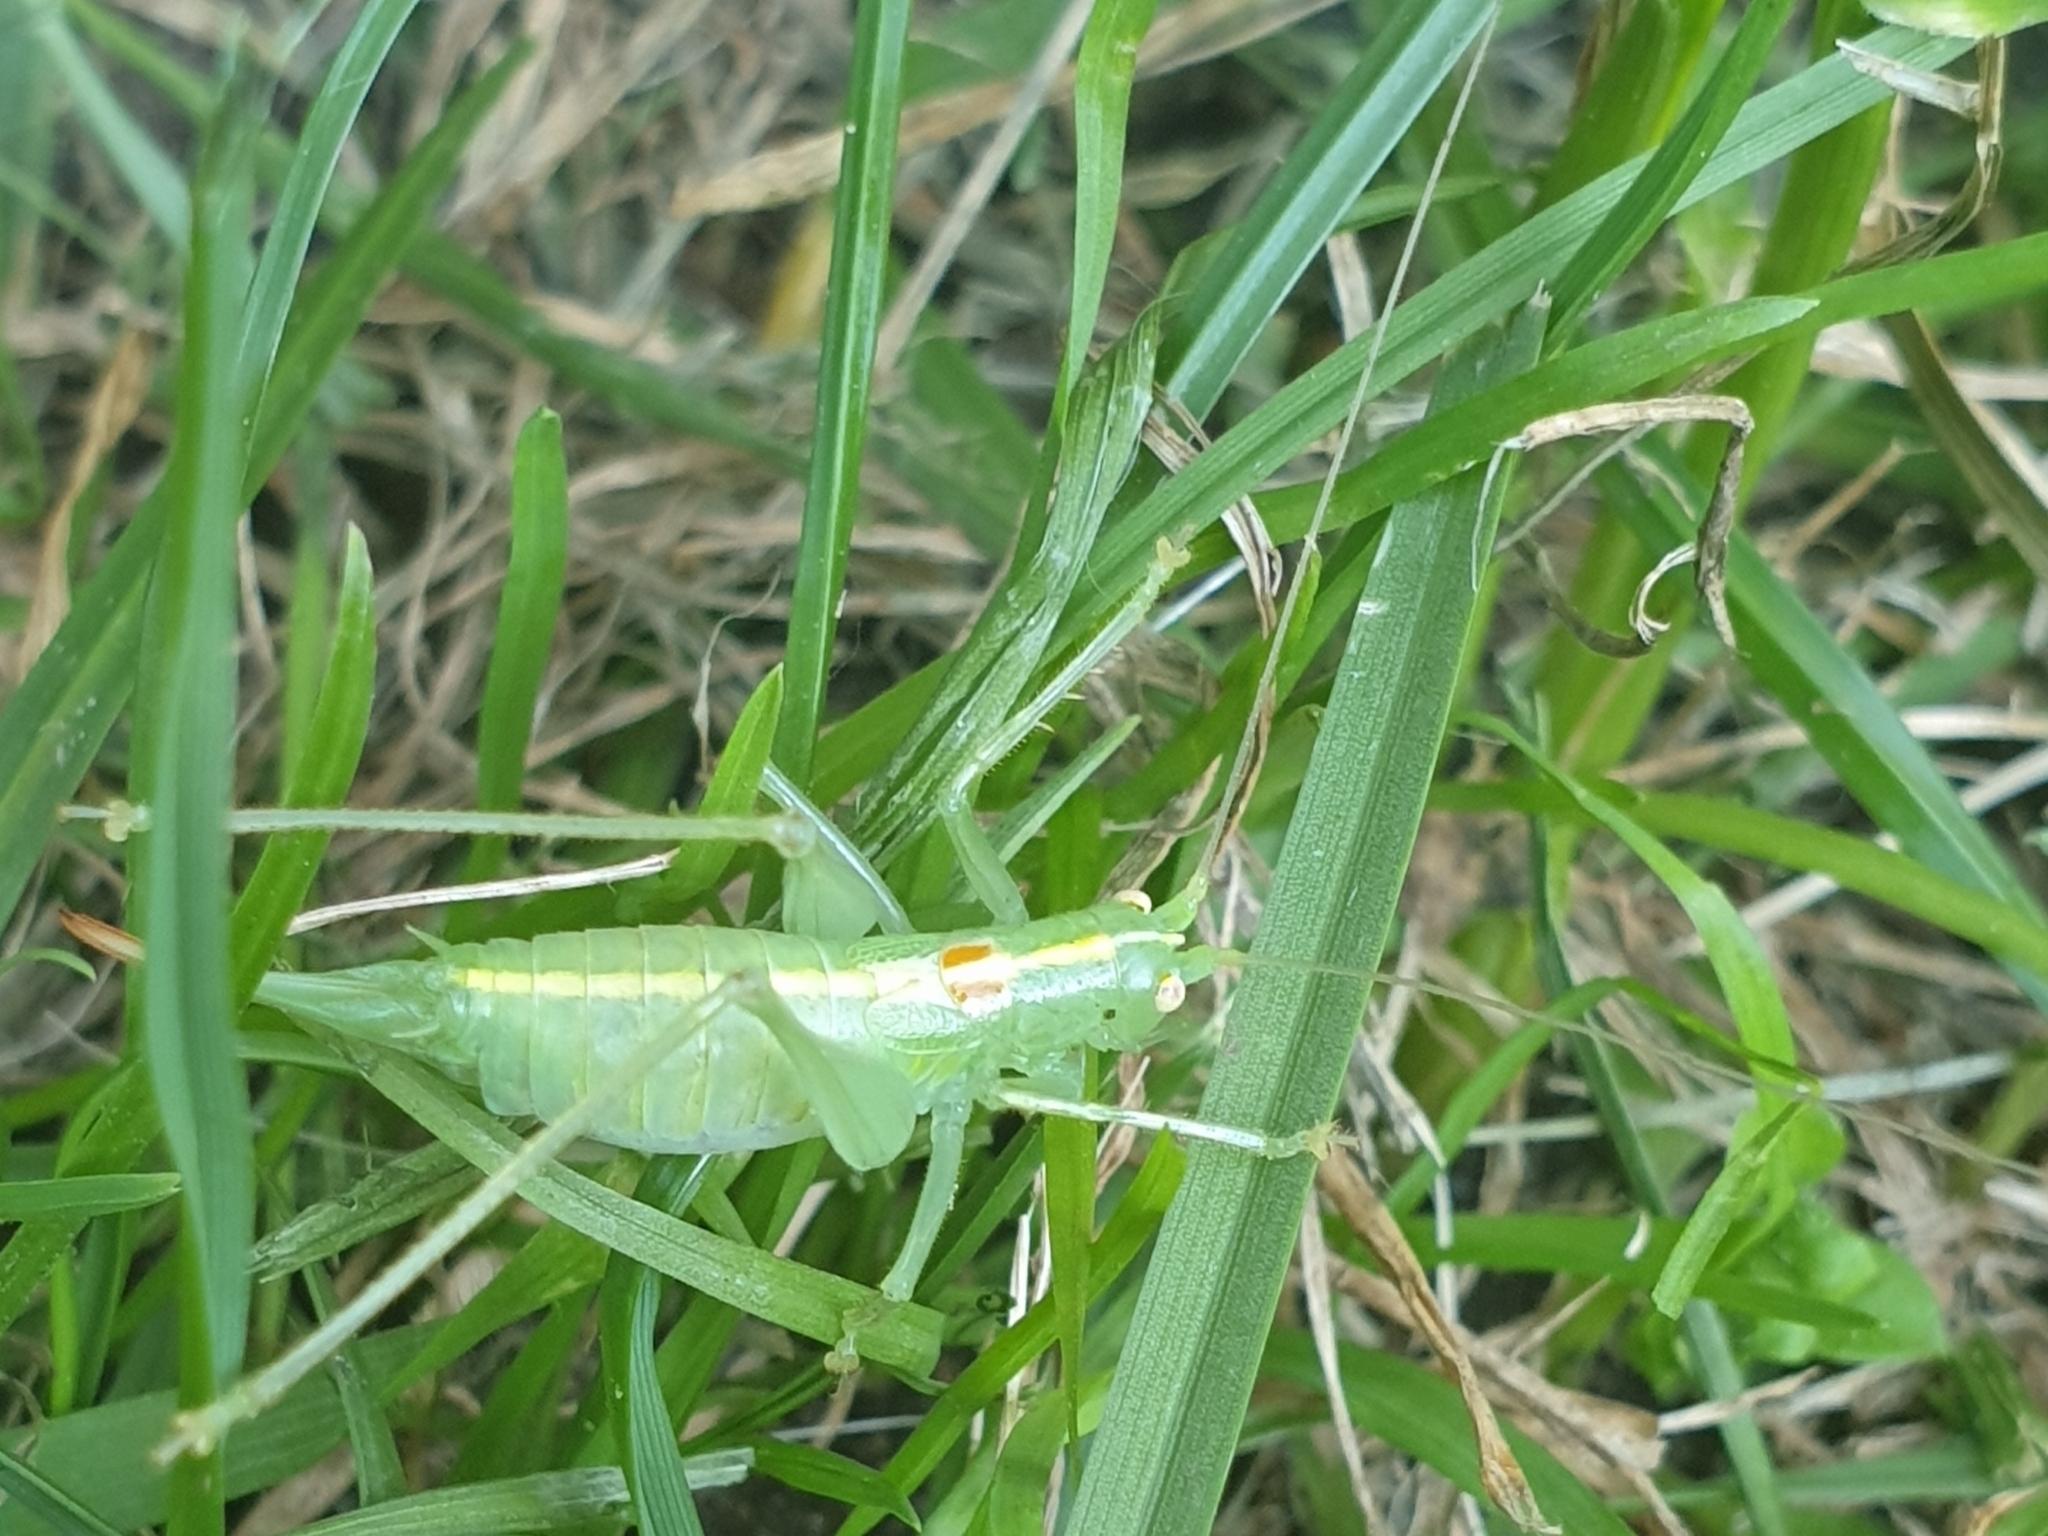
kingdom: Animalia
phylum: Arthropoda
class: Insecta
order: Orthoptera
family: Tettigoniidae
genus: Meconema
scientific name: Meconema meridionale
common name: Southern oak bush-cricket
